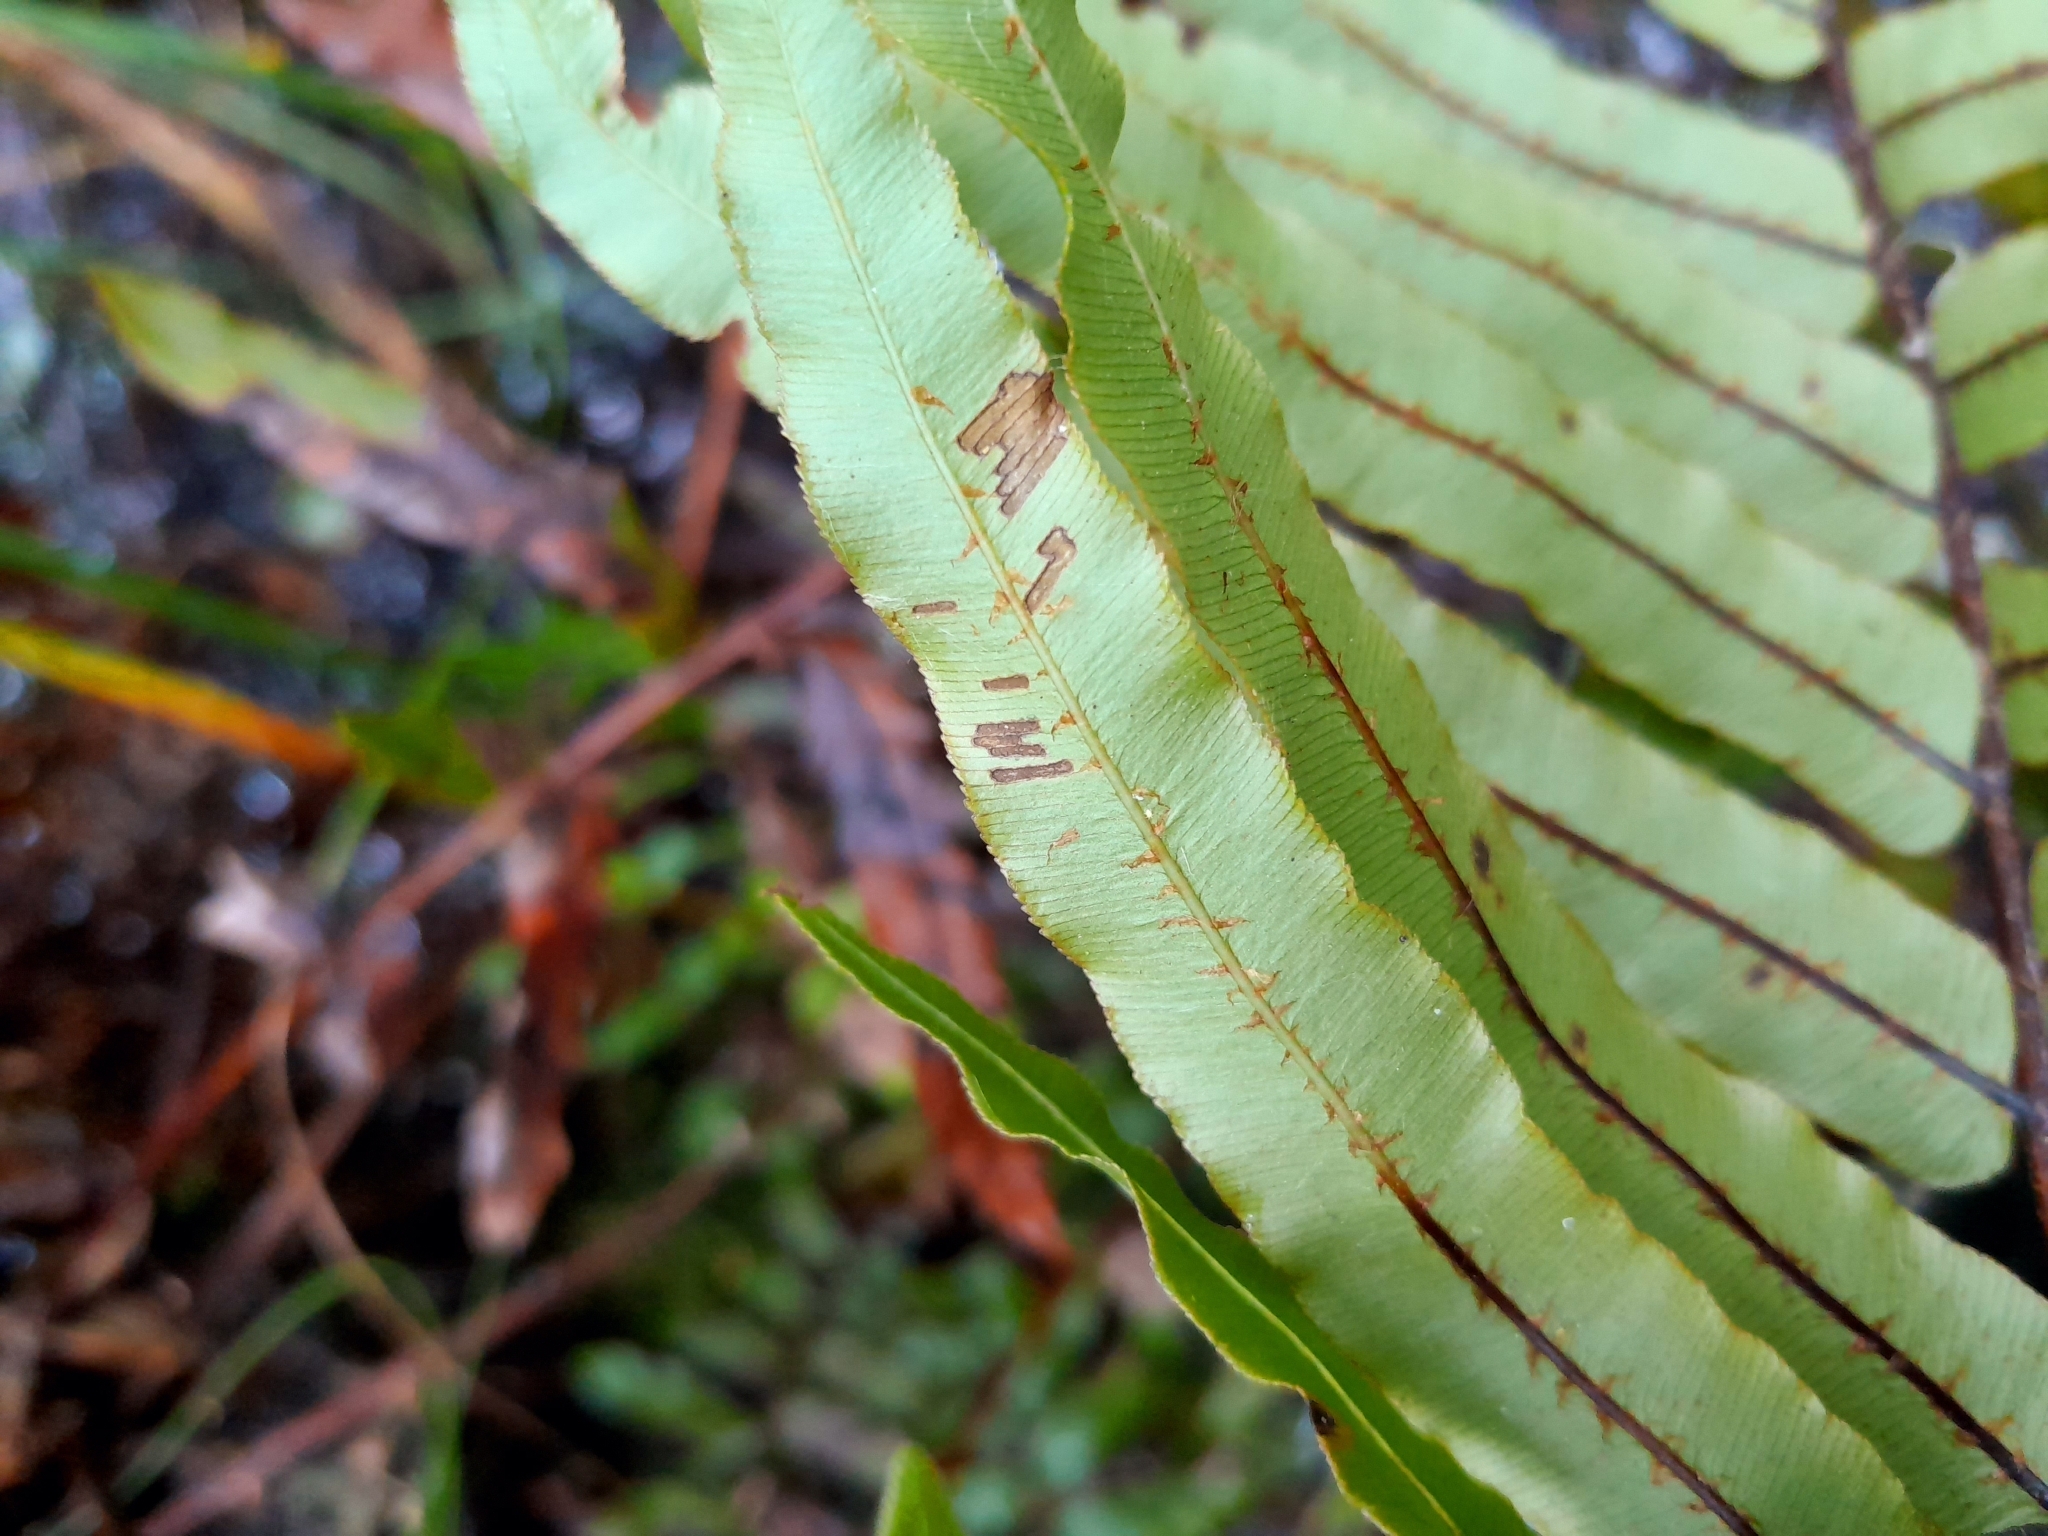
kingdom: Plantae
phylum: Tracheophyta
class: Polypodiopsida
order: Polypodiales
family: Blechnaceae
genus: Parablechnum
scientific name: Parablechnum minus
